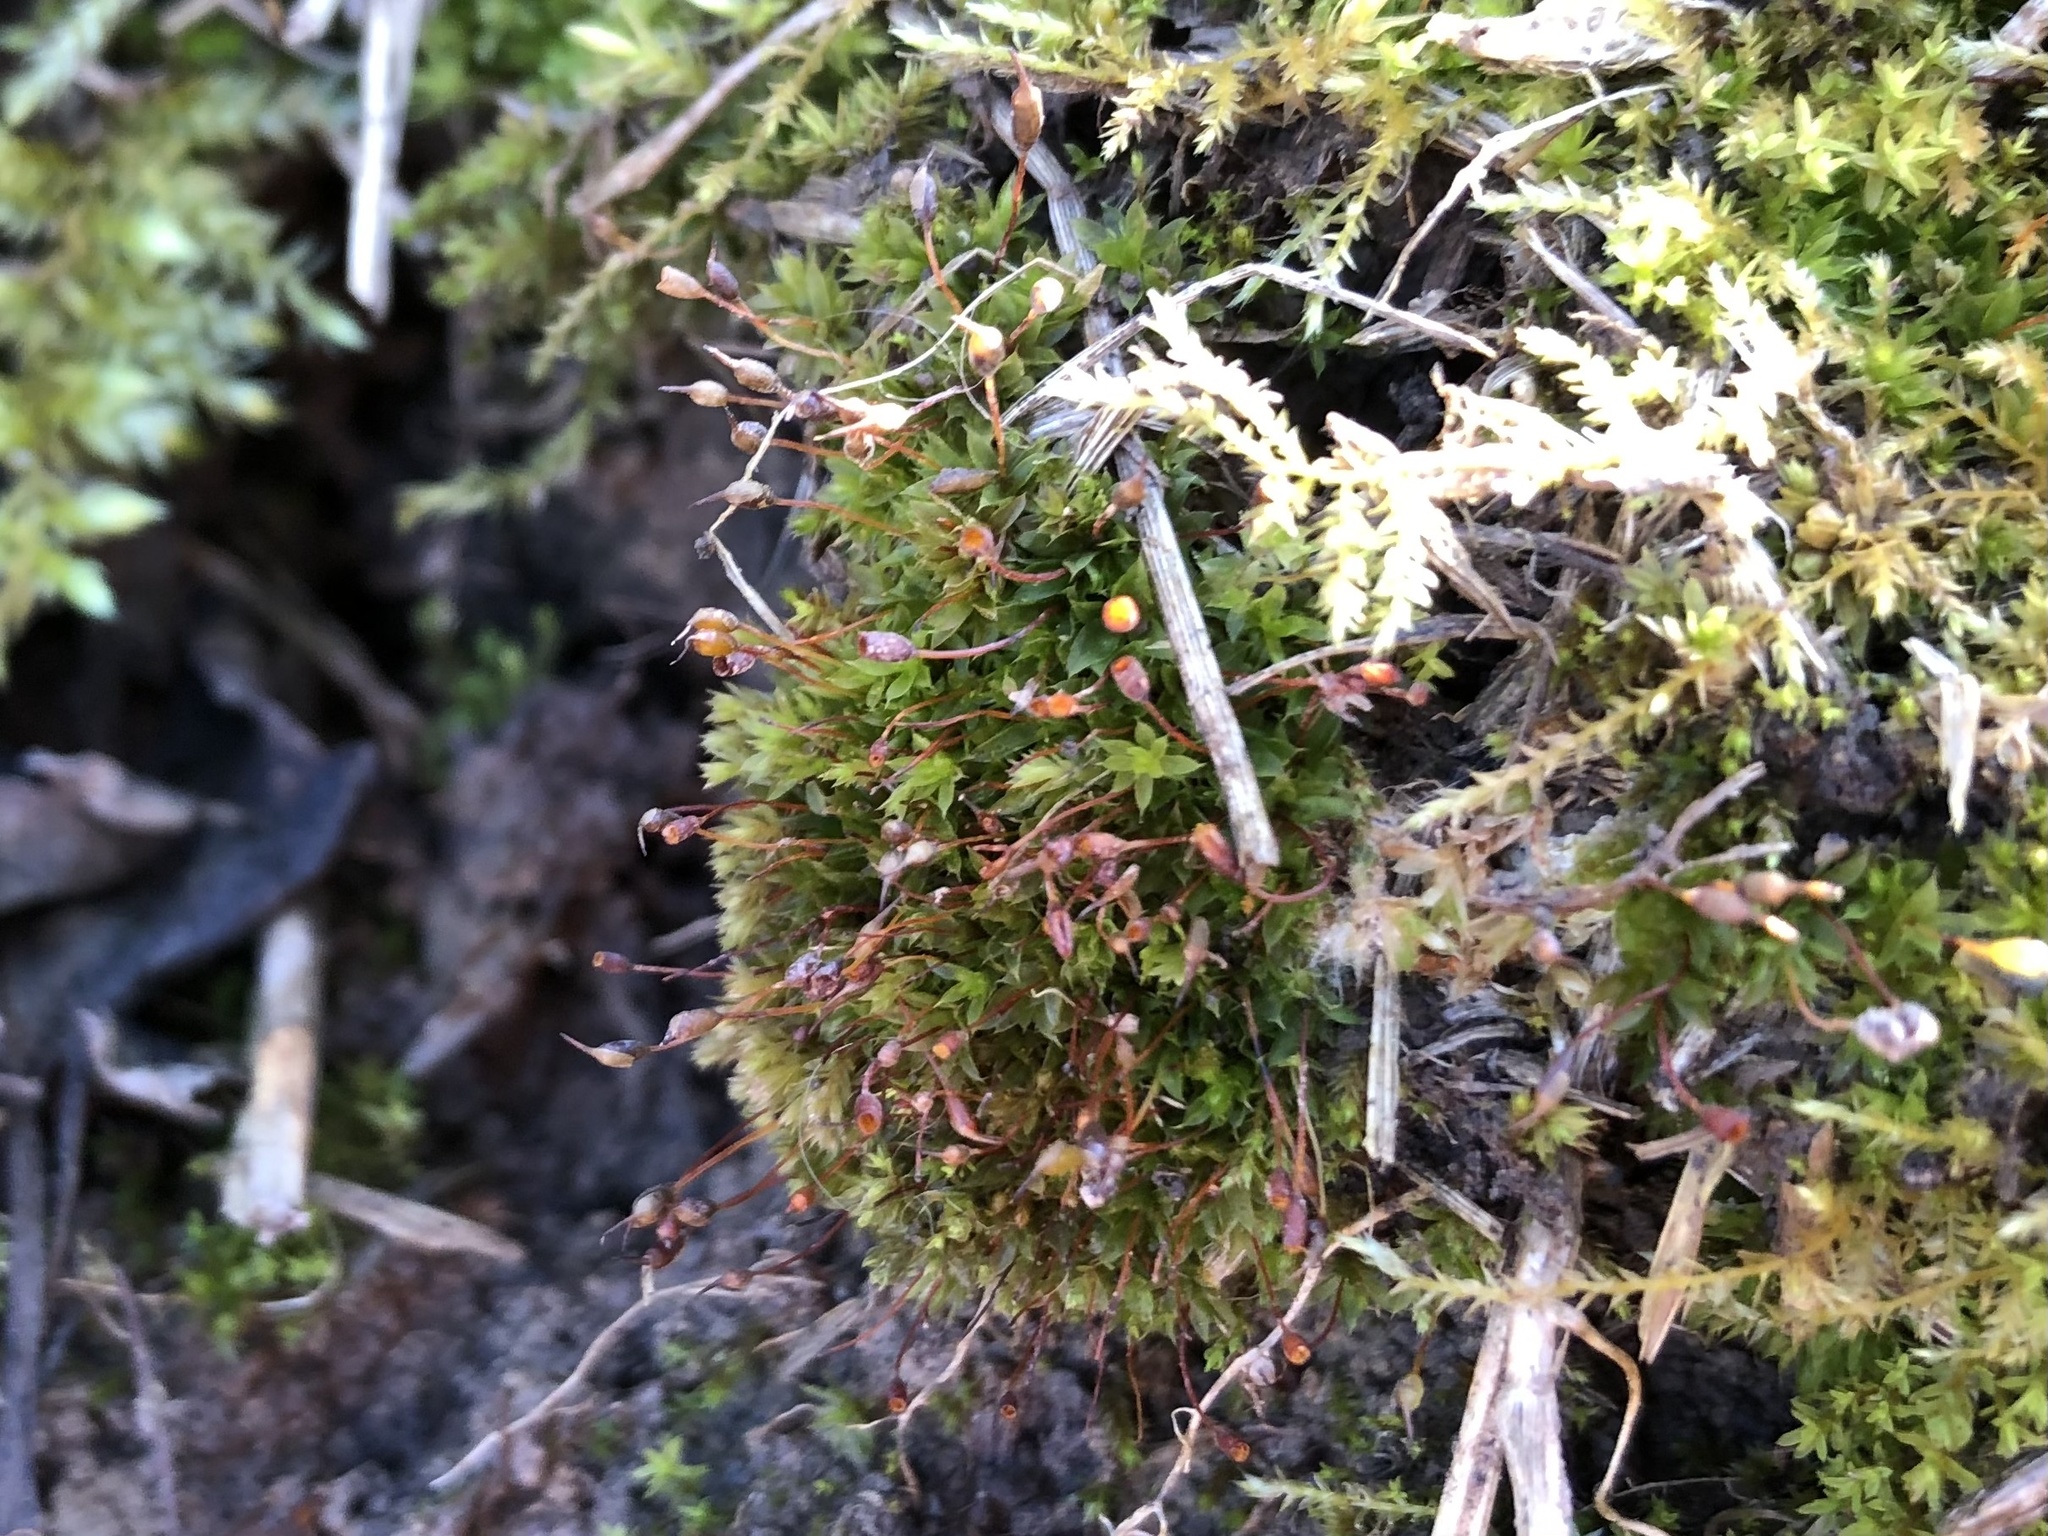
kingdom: Plantae
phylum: Bryophyta
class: Bryopsida
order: Pottiales
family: Pottiaceae
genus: Tortula
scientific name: Tortula truncata
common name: Truncated screw moss
